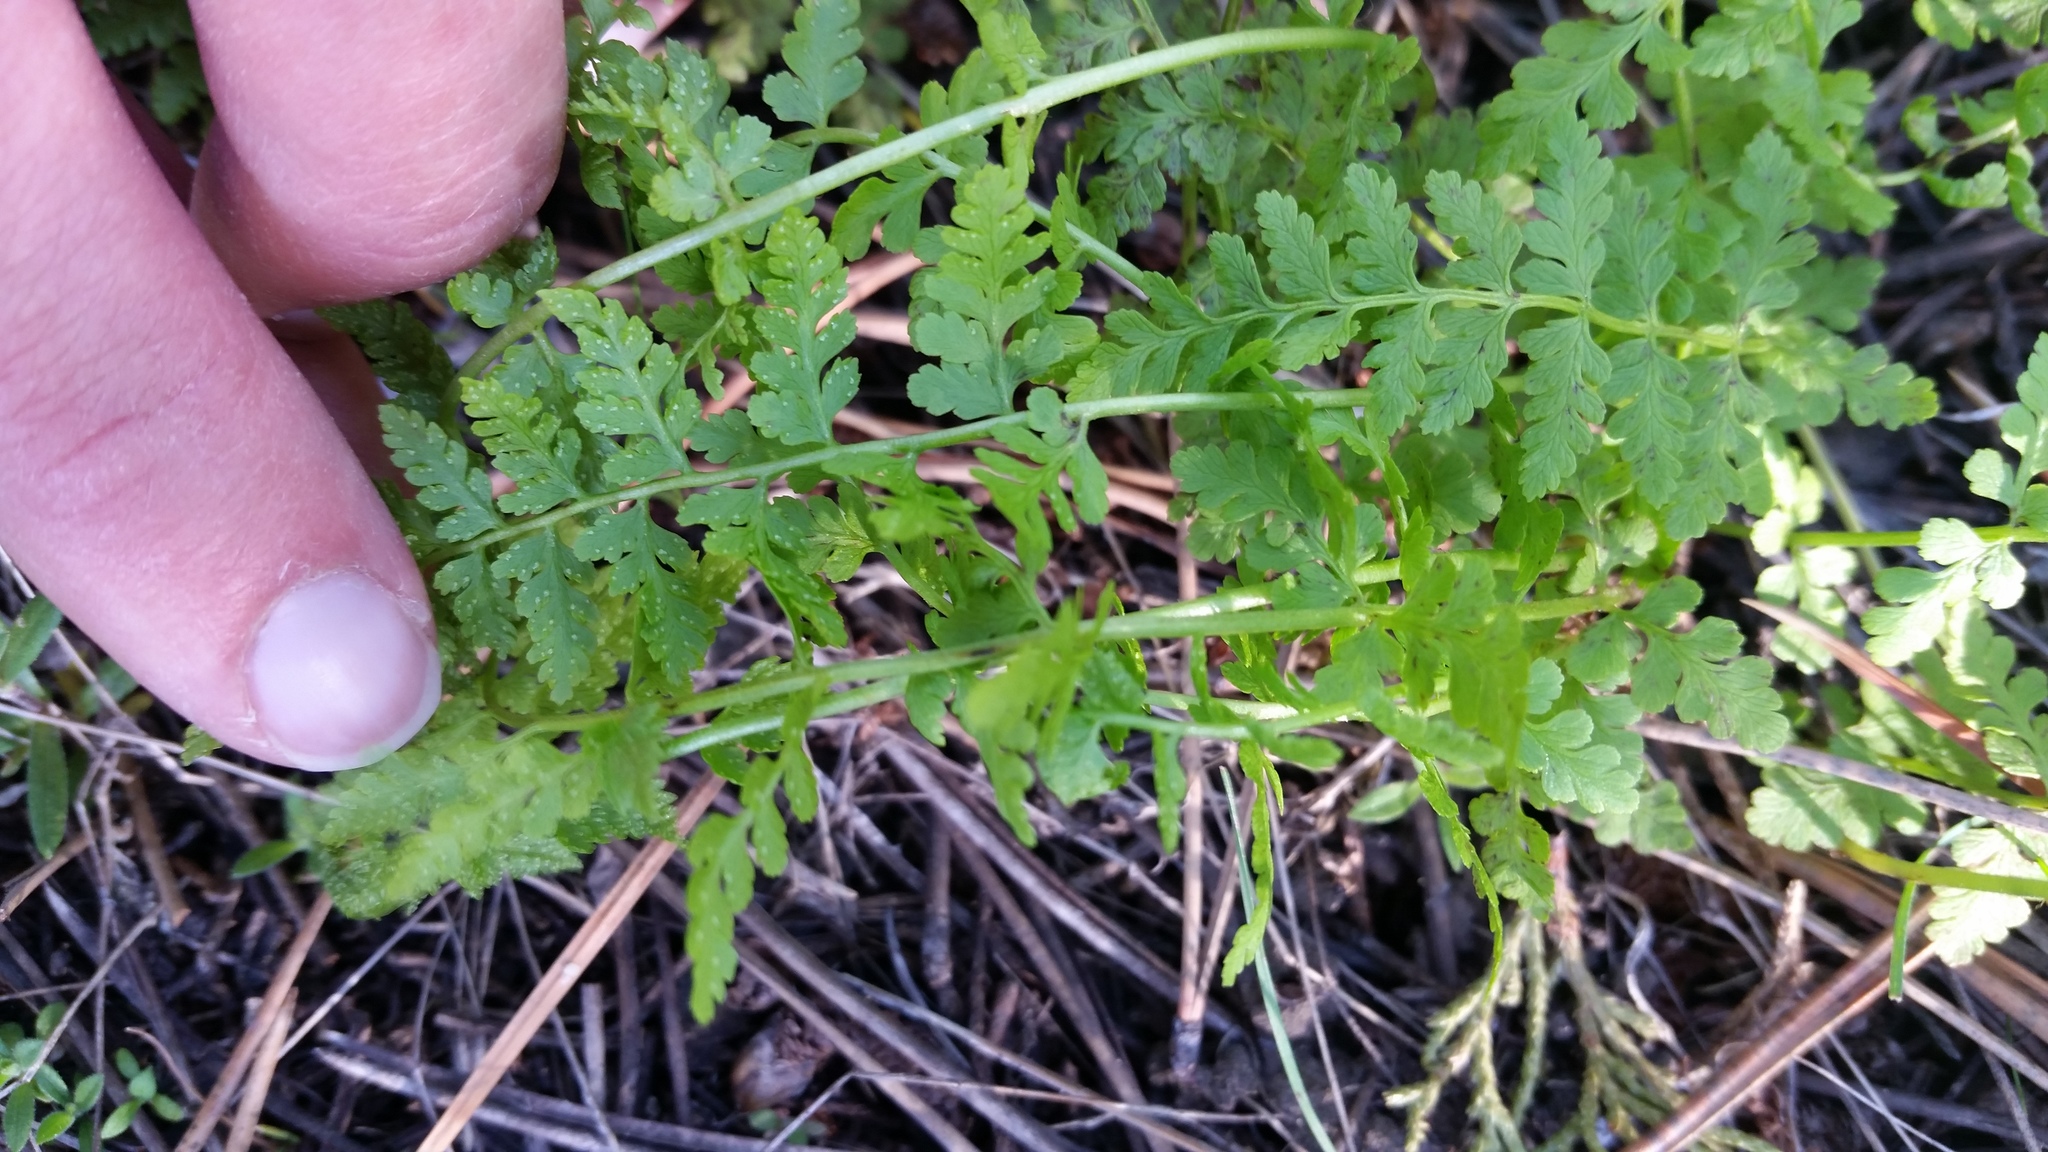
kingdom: Plantae
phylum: Tracheophyta
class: Polypodiopsida
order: Polypodiales
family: Cystopteridaceae
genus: Cystopteris
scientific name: Cystopteris fragilis
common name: Brittle bladder fern
